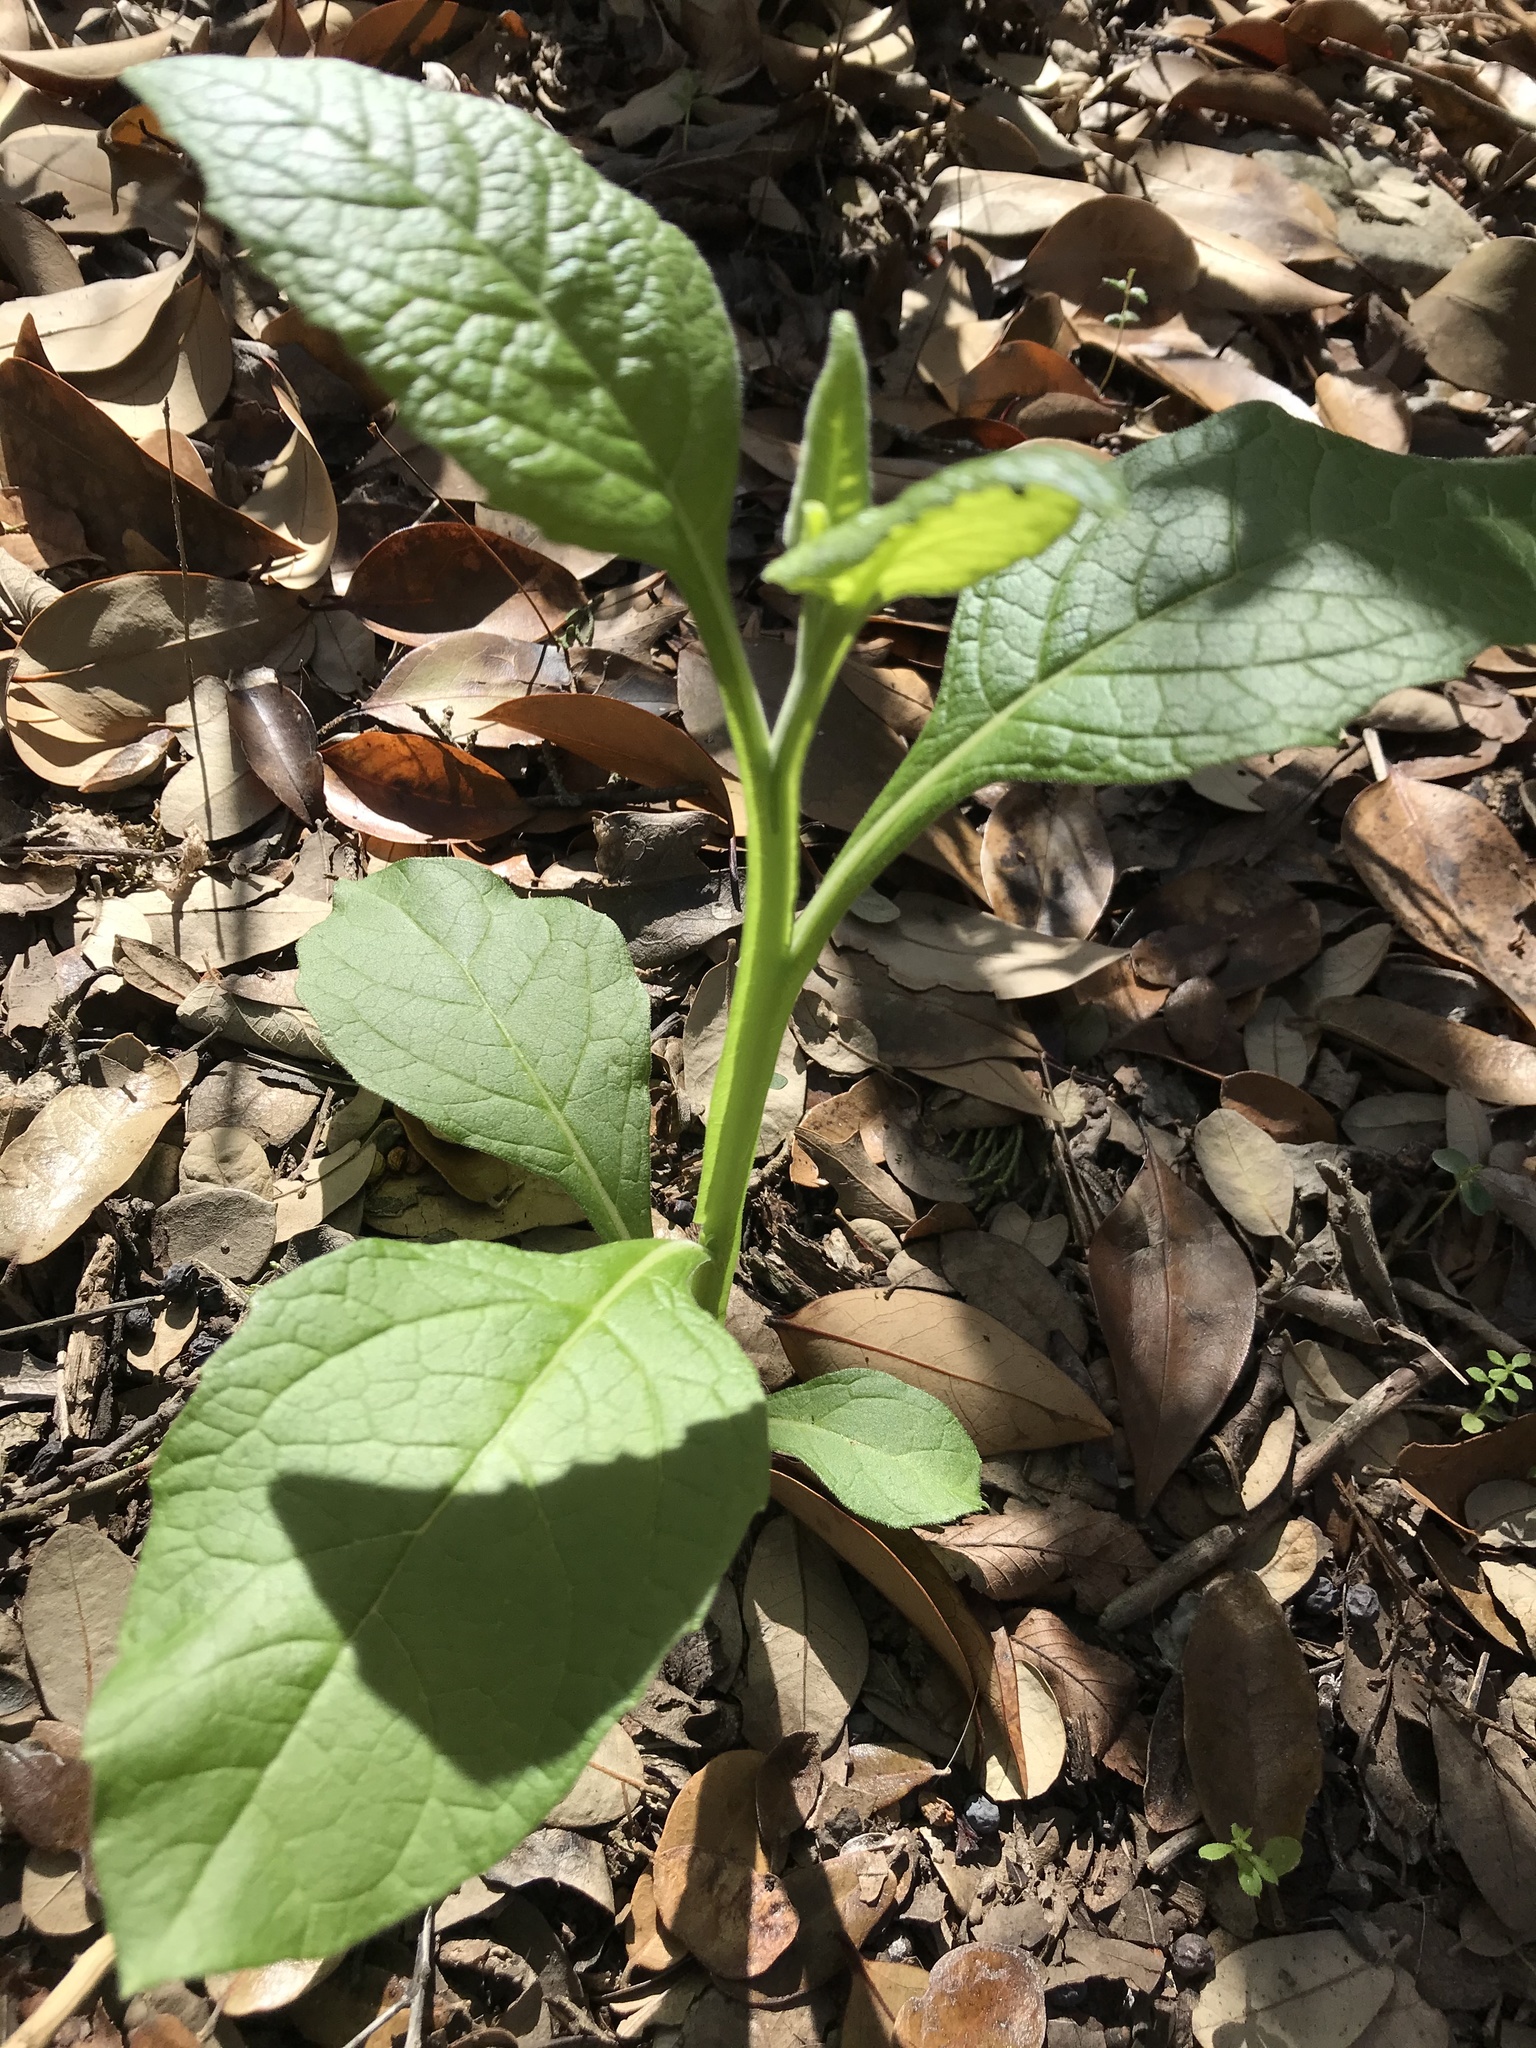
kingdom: Plantae
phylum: Tracheophyta
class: Magnoliopsida
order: Asterales
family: Asteraceae
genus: Verbesina
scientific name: Verbesina virginica
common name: Frostweed
